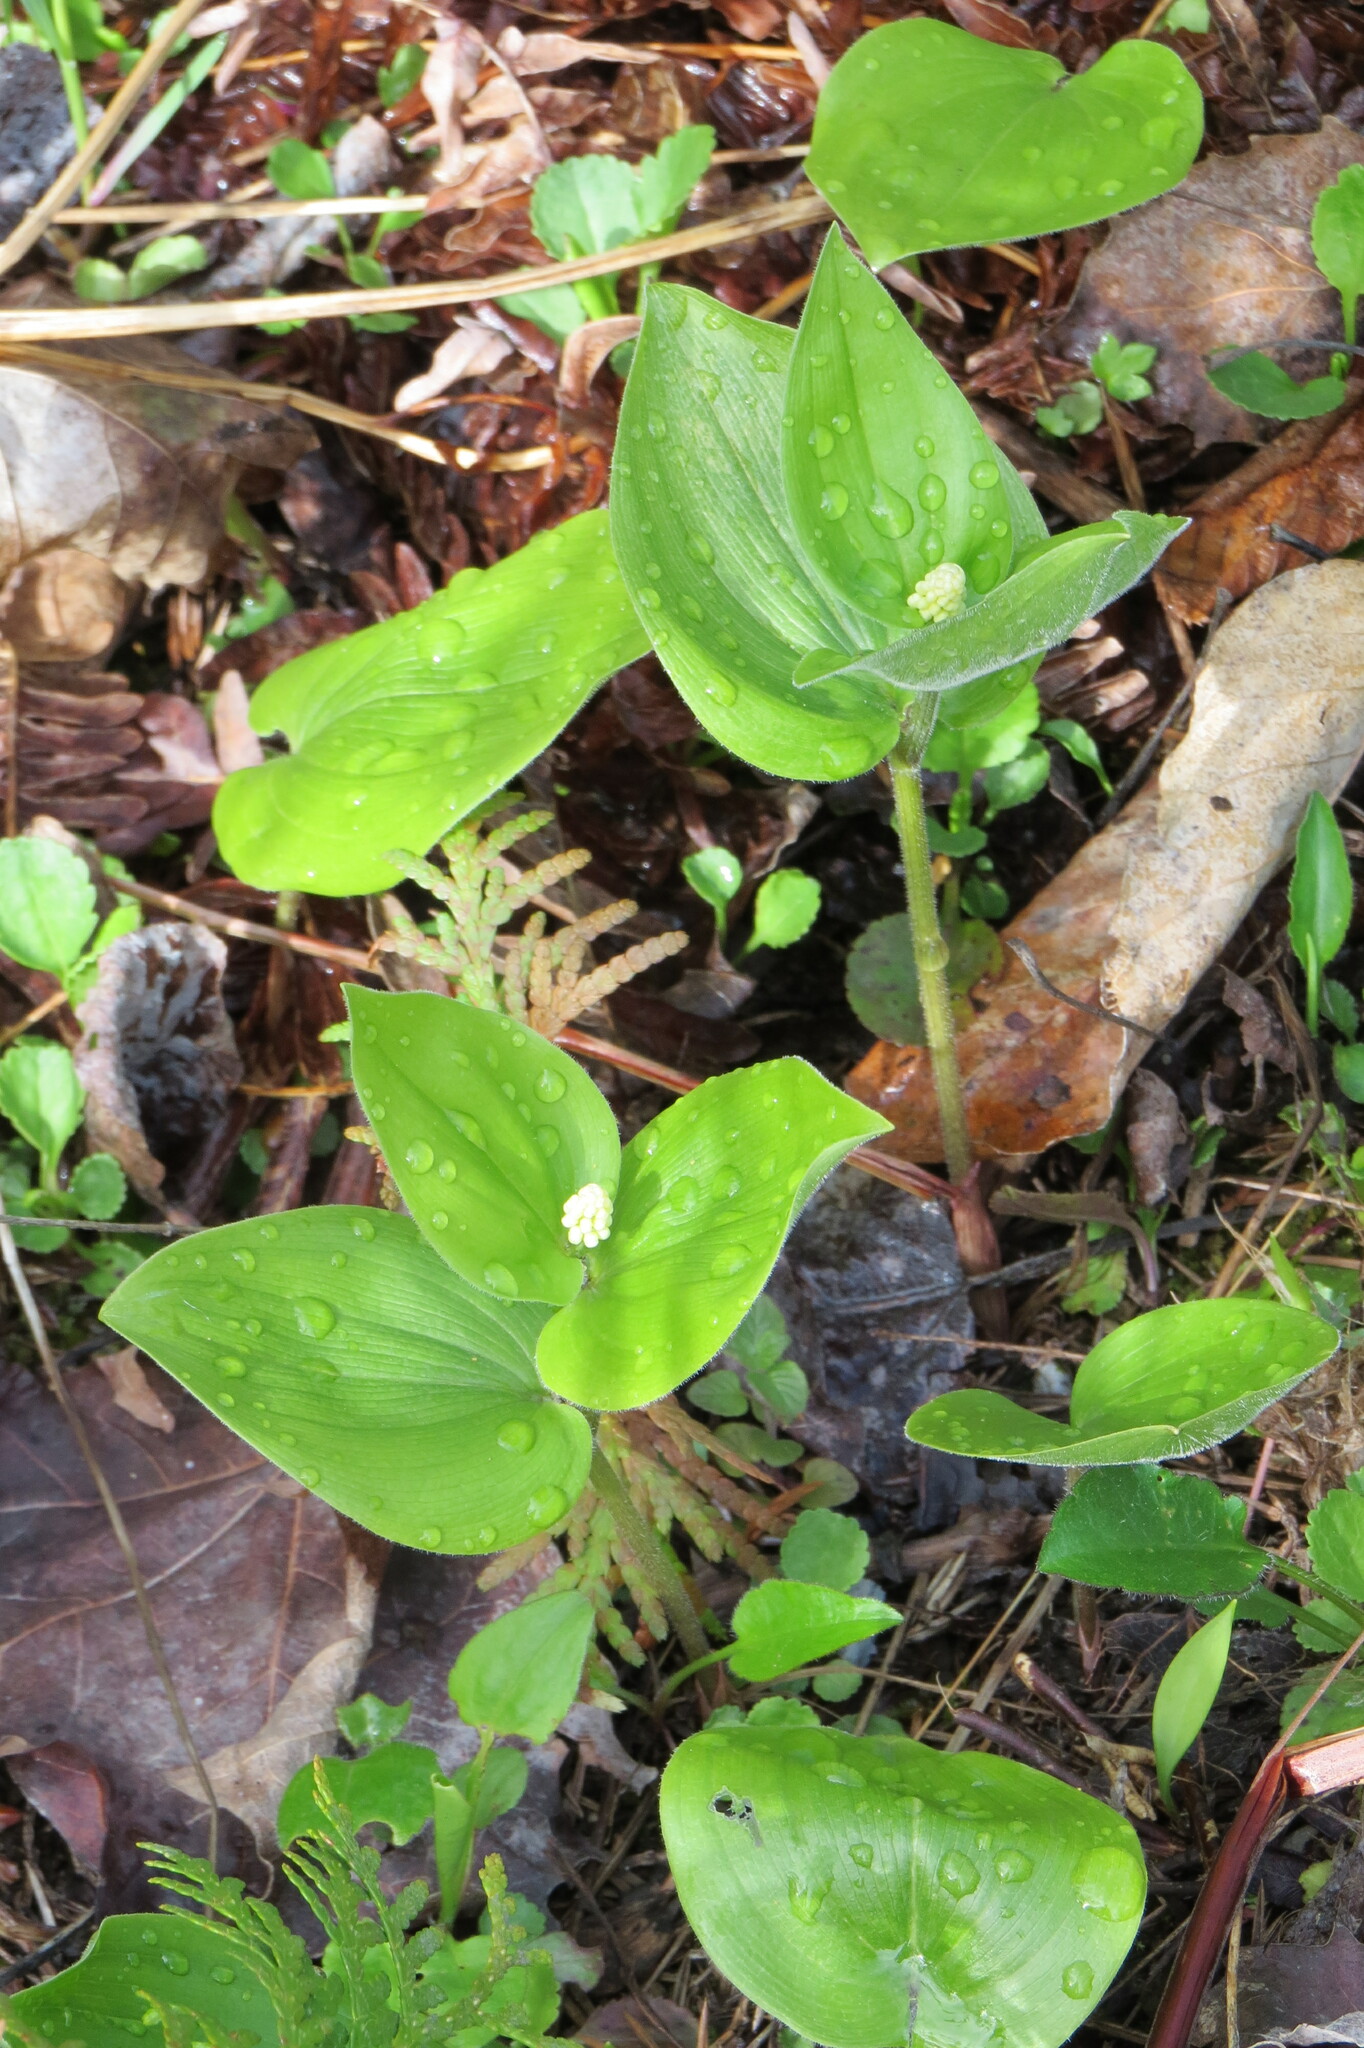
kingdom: Plantae
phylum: Tracheophyta
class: Liliopsida
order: Asparagales
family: Asparagaceae
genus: Maianthemum
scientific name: Maianthemum canadense
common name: False lily-of-the-valley
